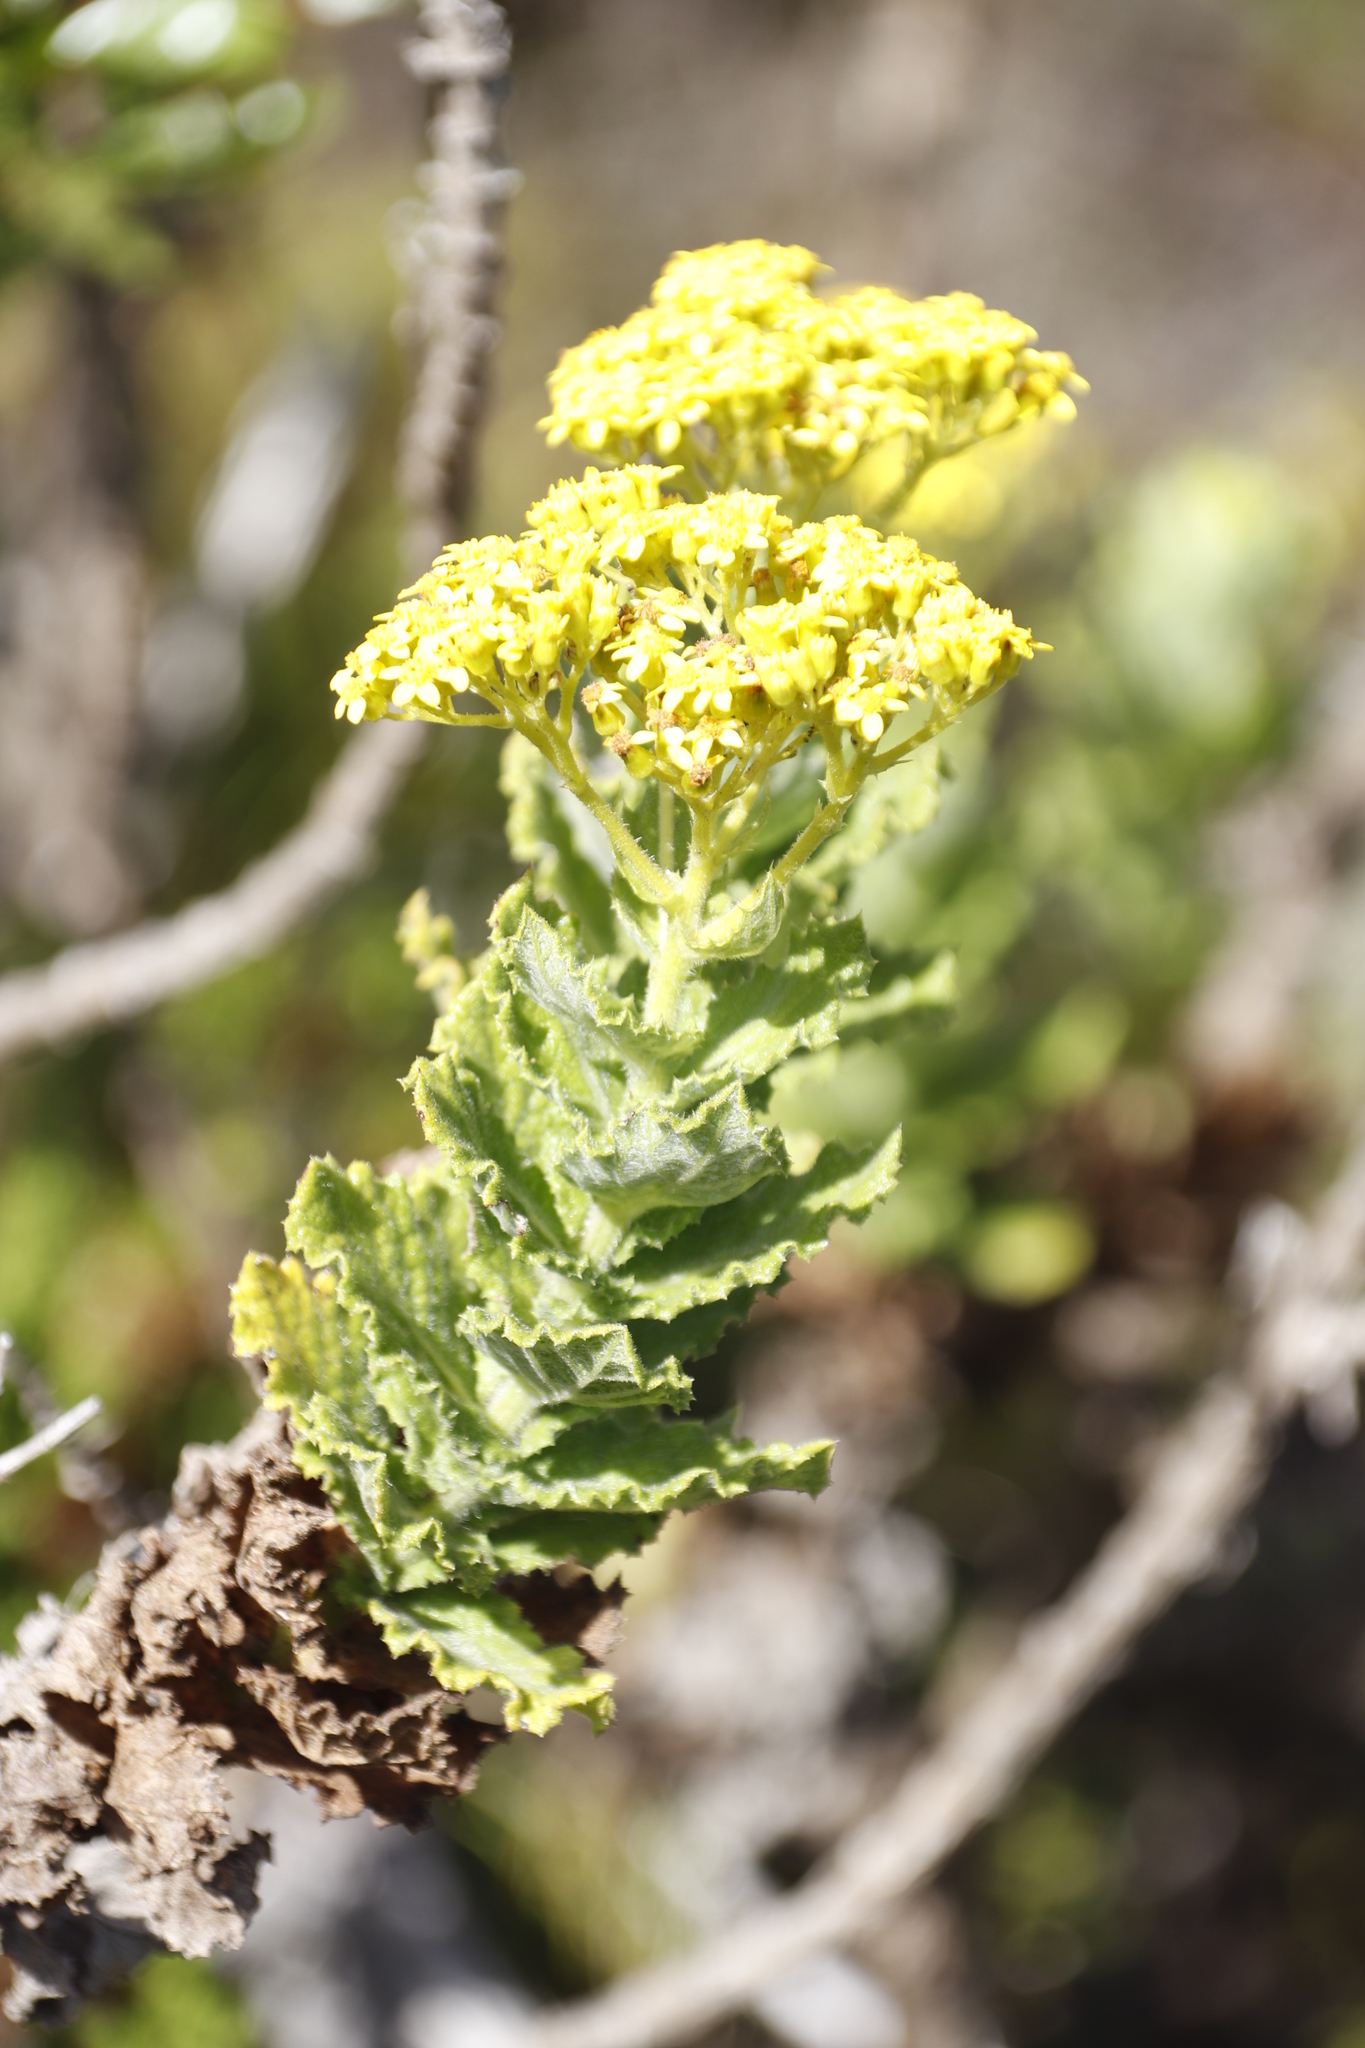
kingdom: Plantae
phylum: Tracheophyta
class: Magnoliopsida
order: Asterales
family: Asteraceae
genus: Senecio
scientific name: Senecio rigidus
